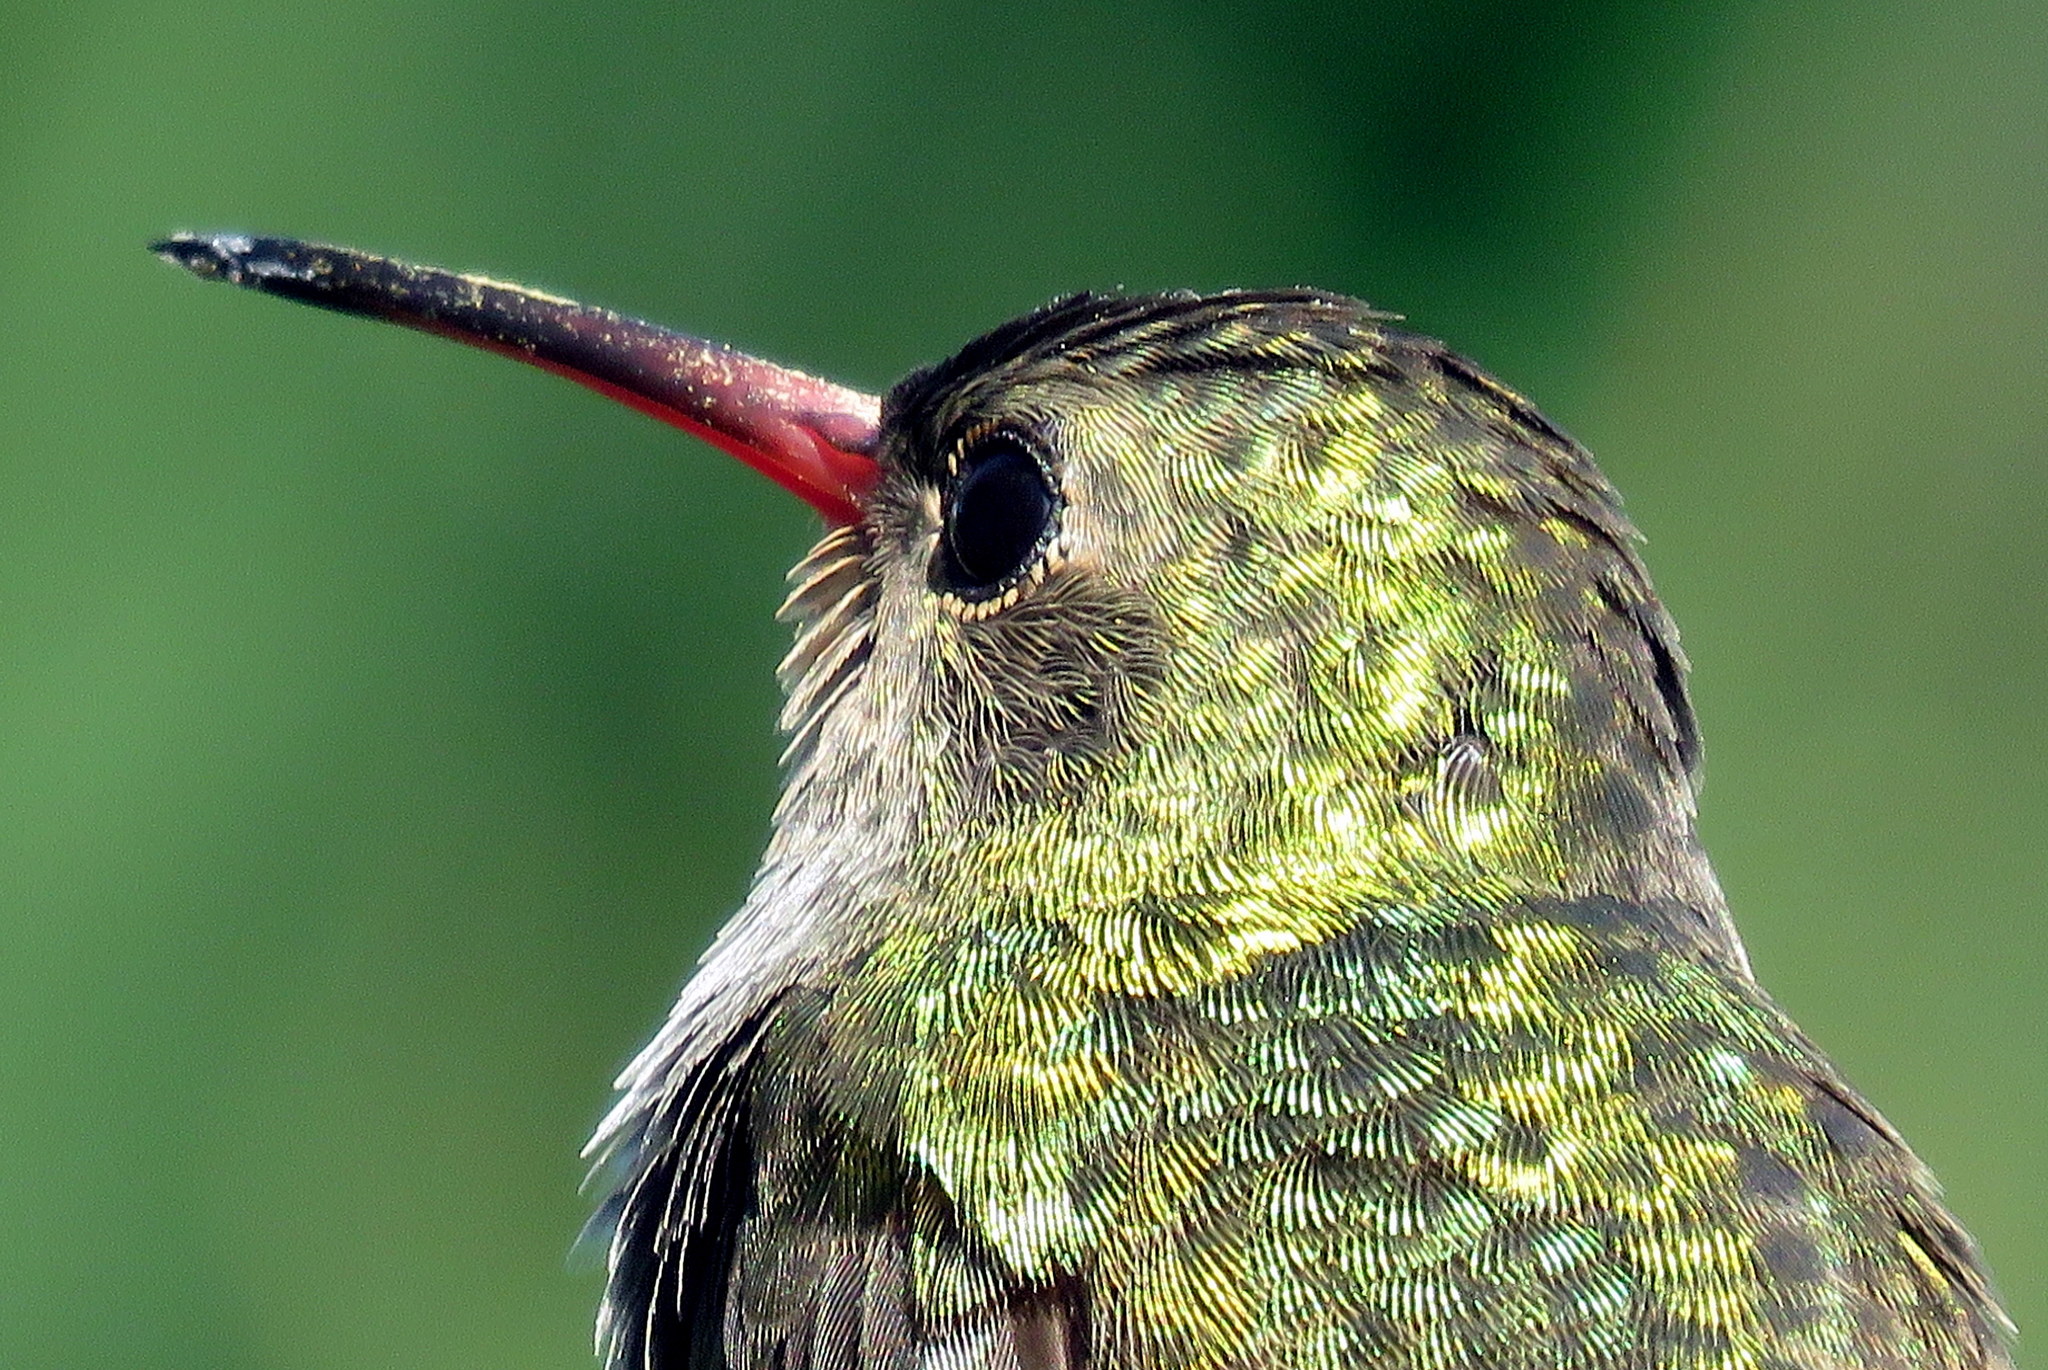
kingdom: Animalia
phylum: Chordata
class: Aves
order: Apodiformes
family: Trochilidae
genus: Hylocharis
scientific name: Hylocharis chrysura
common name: Gilded sapphire
